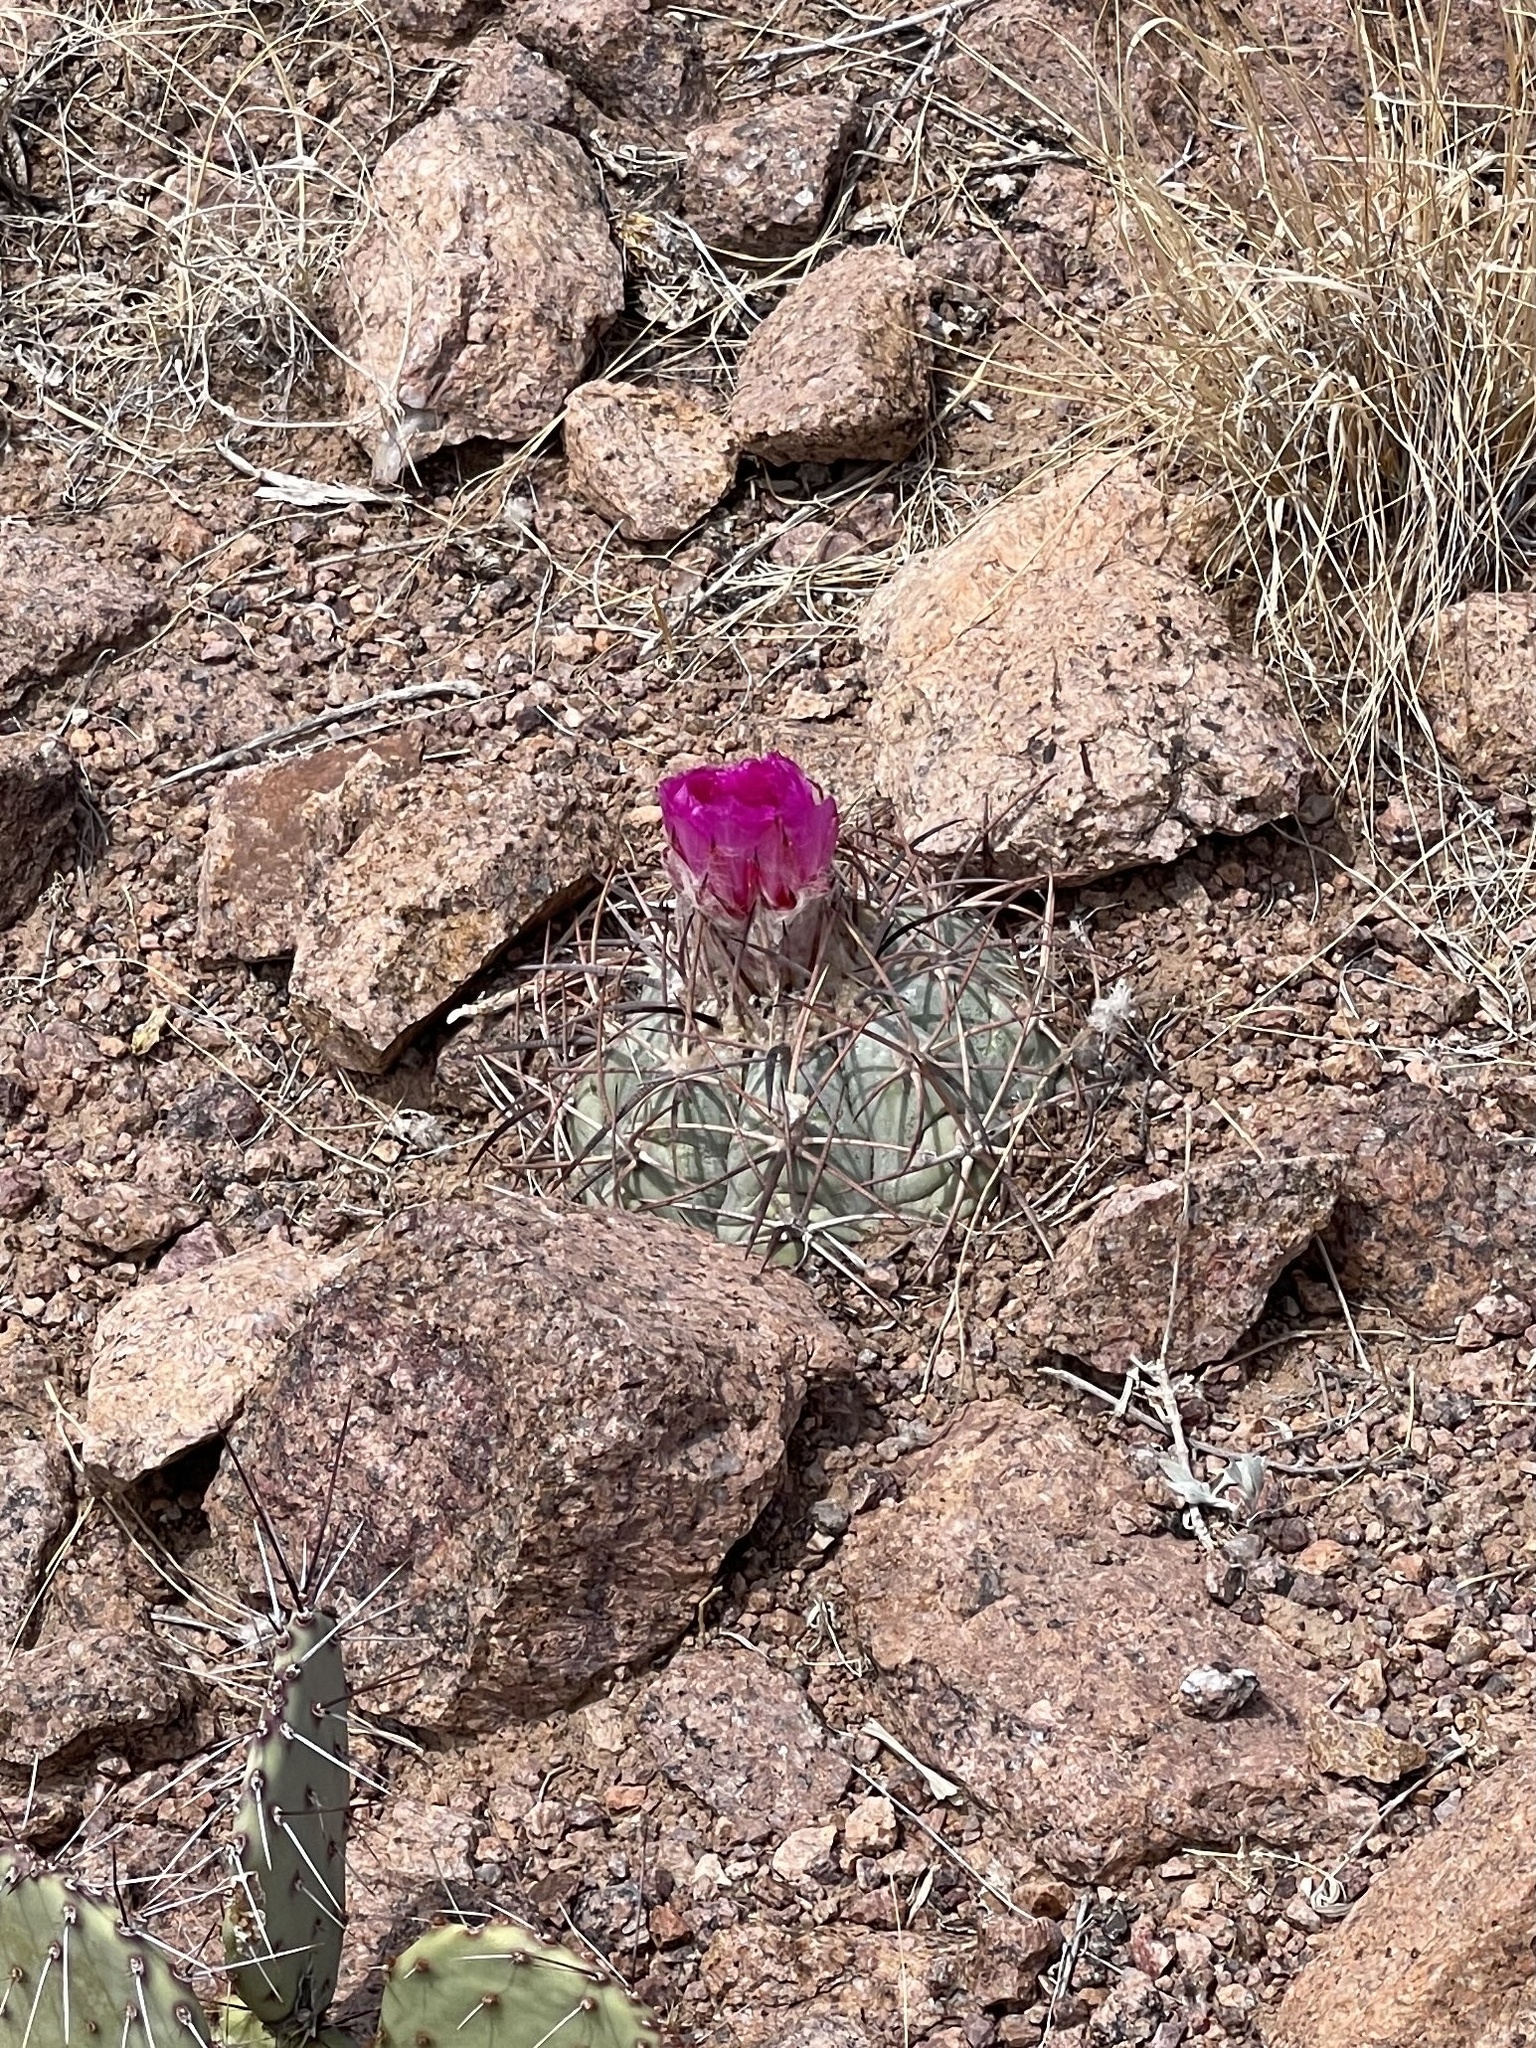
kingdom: Plantae
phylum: Tracheophyta
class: Magnoliopsida
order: Caryophyllales
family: Cactaceae
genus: Echinocactus
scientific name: Echinocactus horizonthalonius
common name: Devilshead
